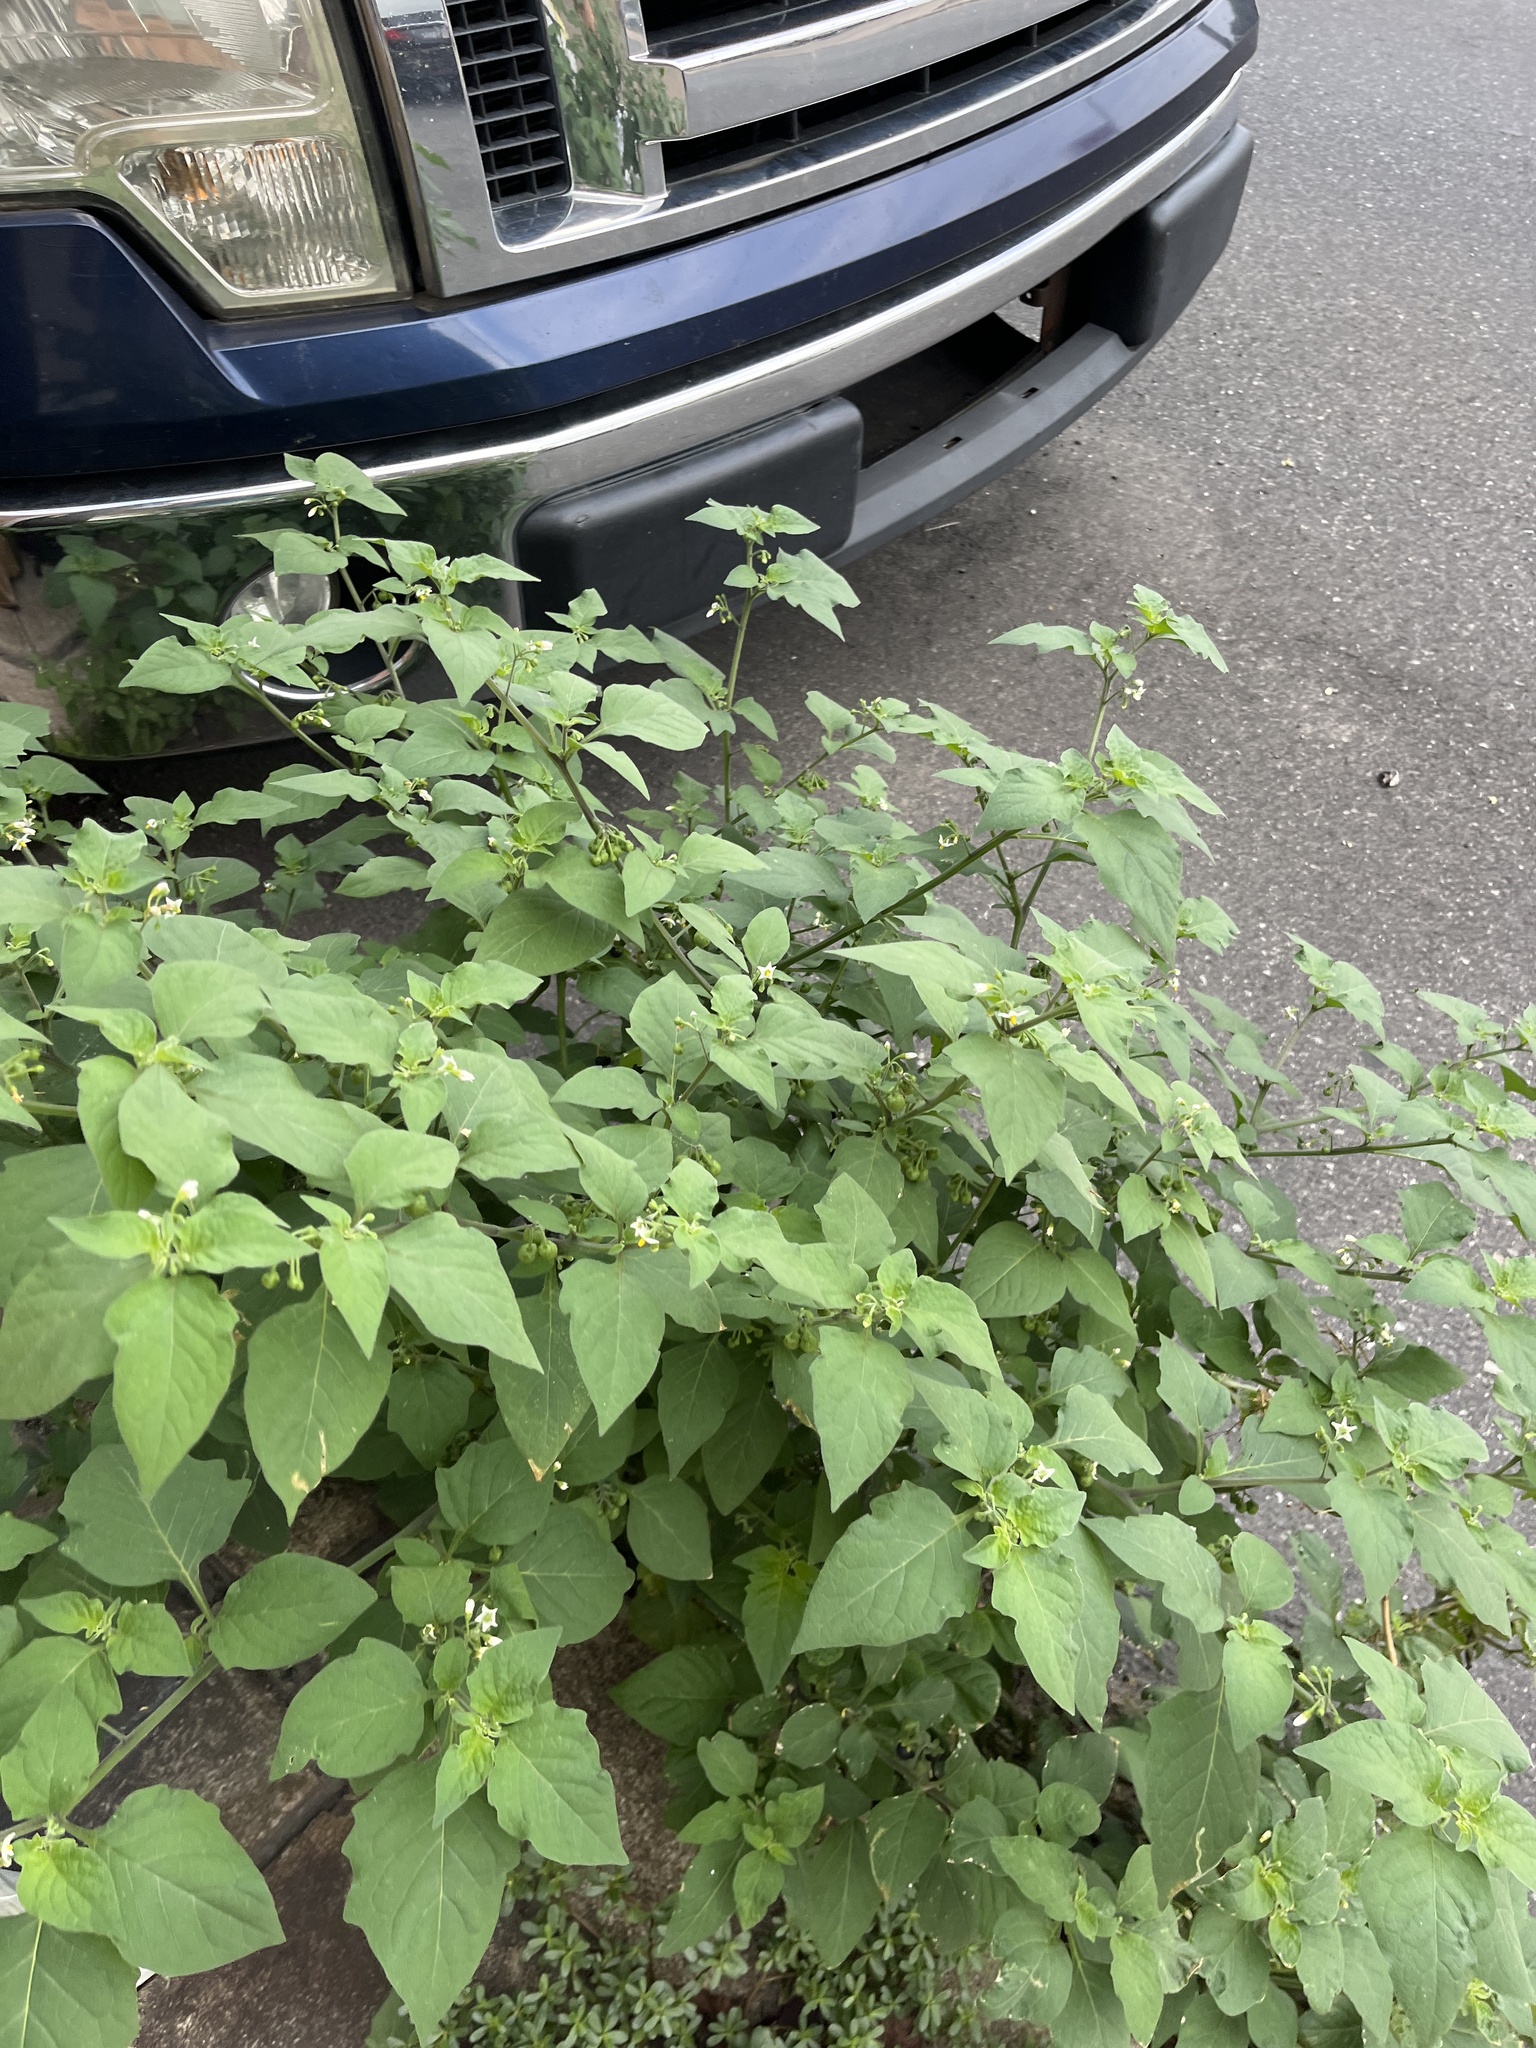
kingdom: Plantae
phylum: Tracheophyta
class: Magnoliopsida
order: Solanales
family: Solanaceae
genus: Solanum
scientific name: Solanum nigrum
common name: Black nightshade
